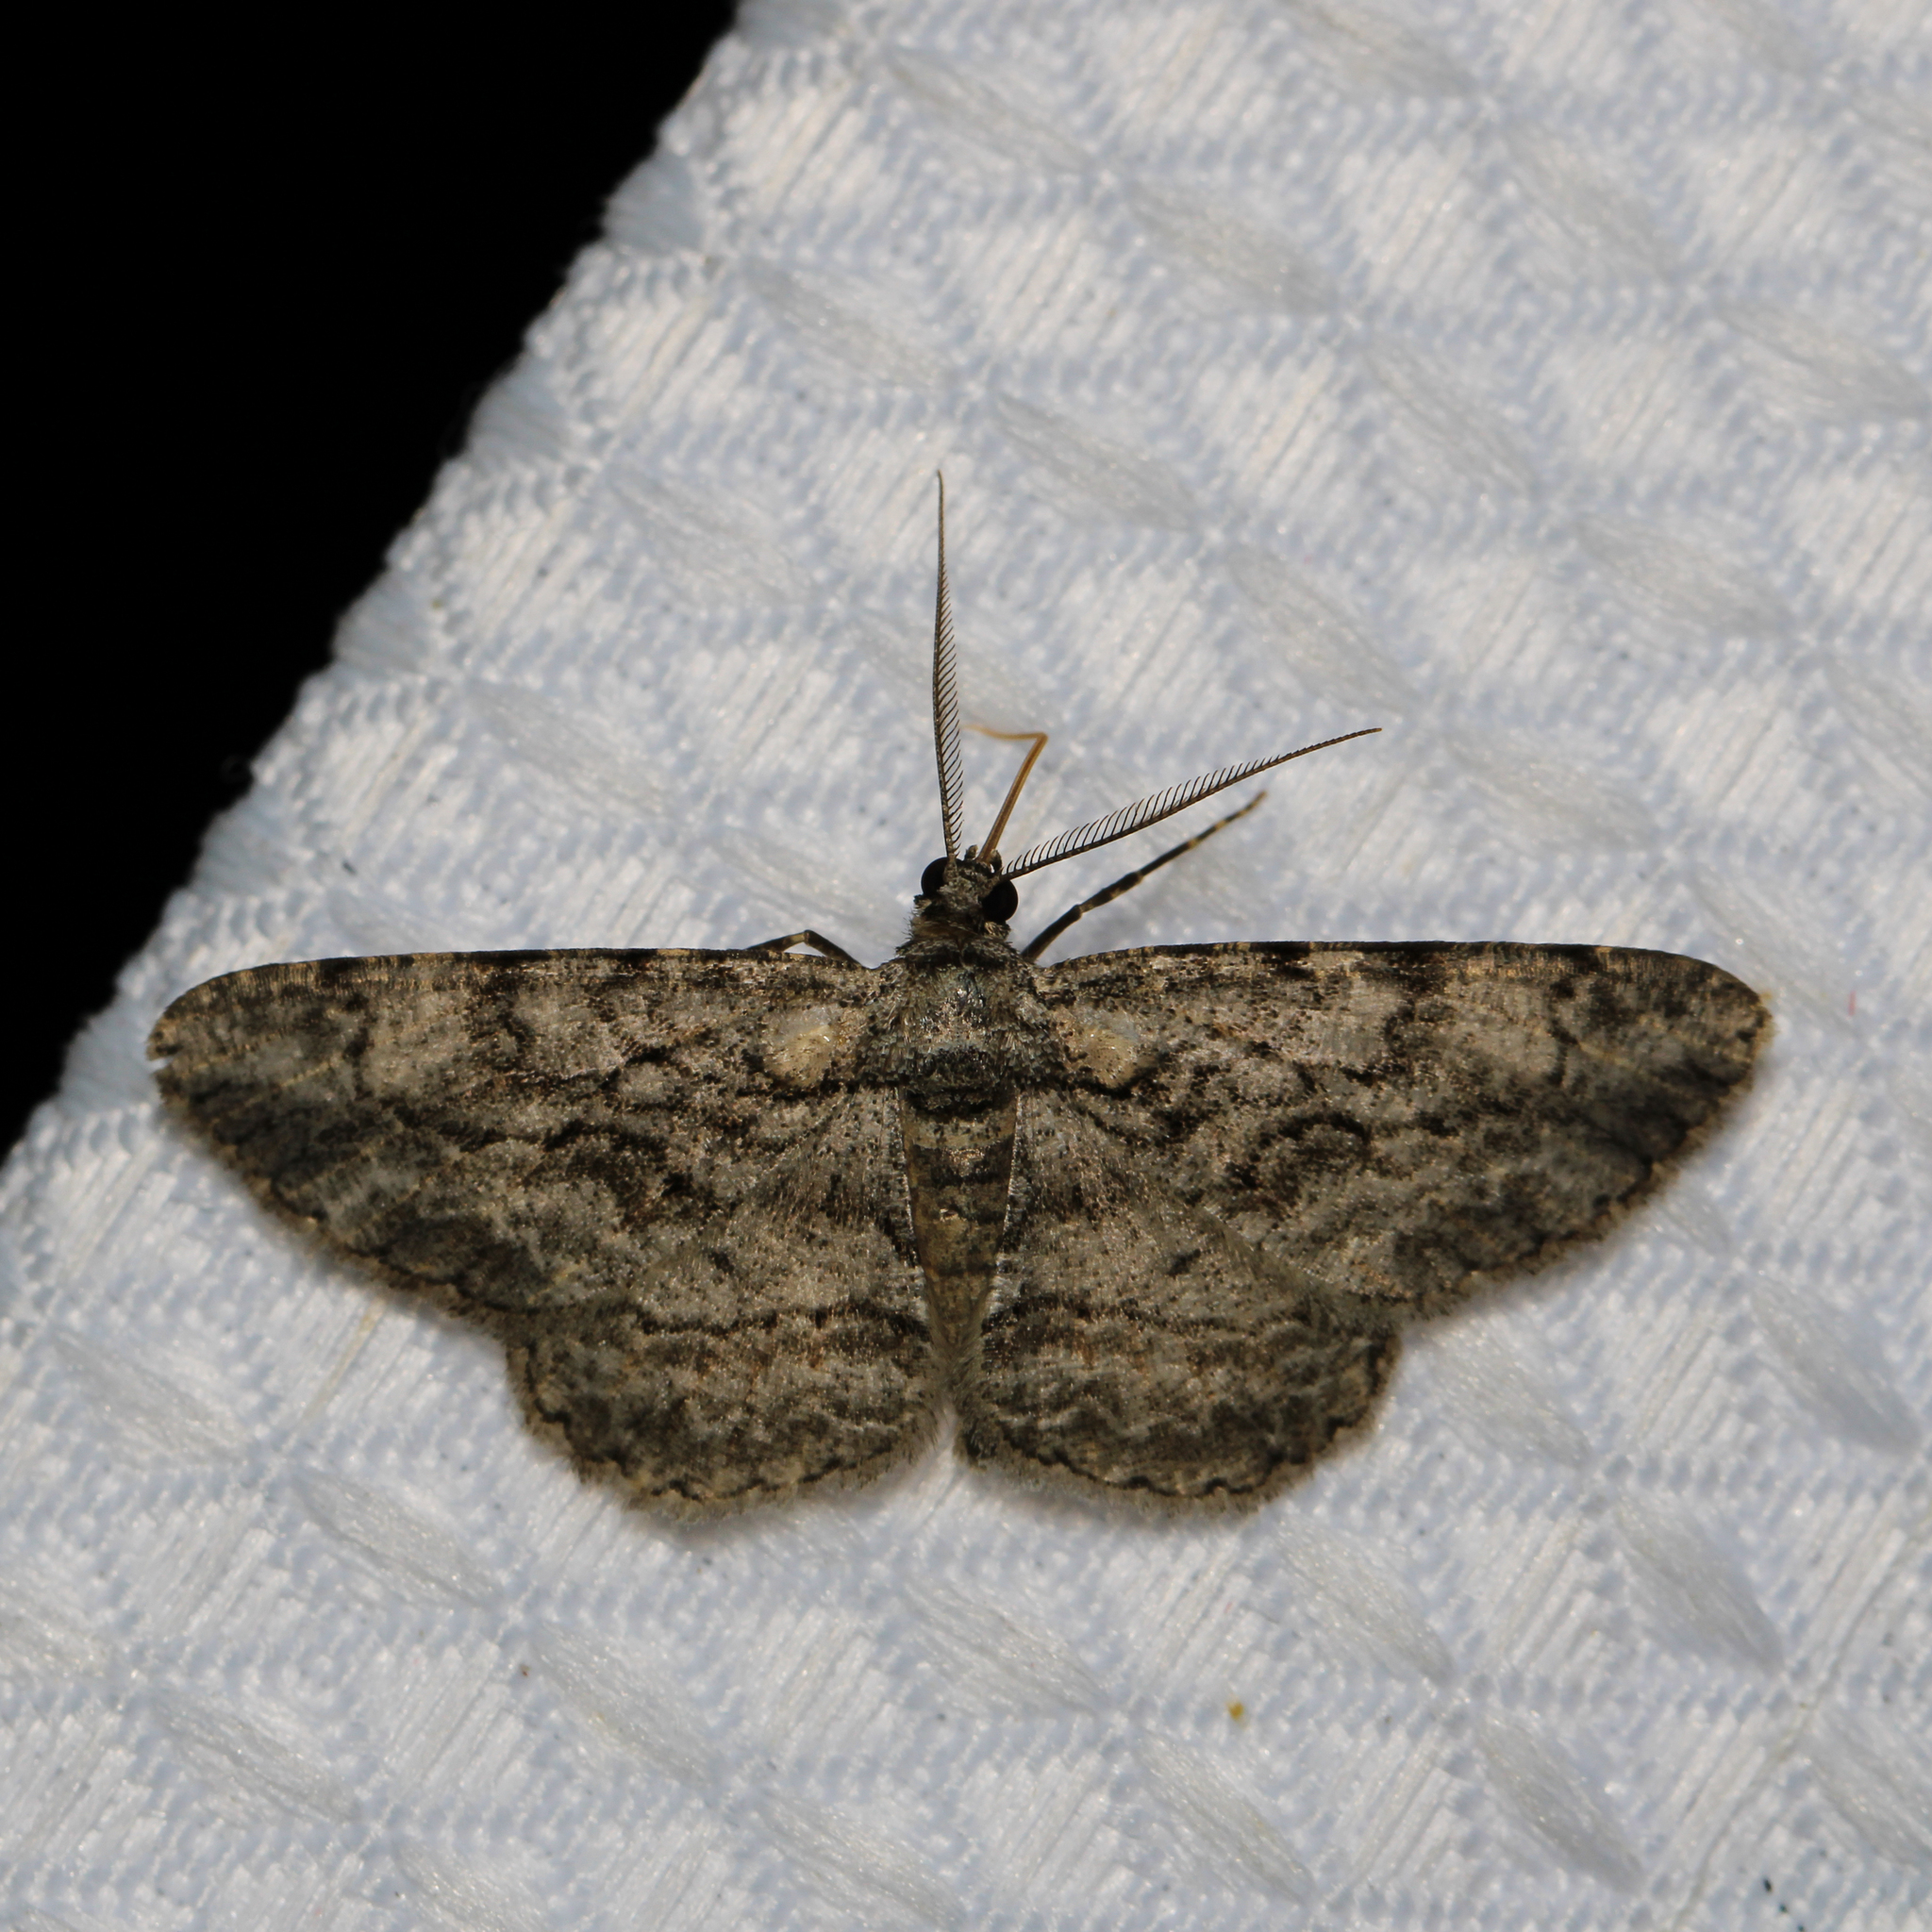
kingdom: Animalia
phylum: Arthropoda
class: Insecta
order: Lepidoptera
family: Geometridae
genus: Anavitrinella
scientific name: Anavitrinella pampinaria
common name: Common gray
